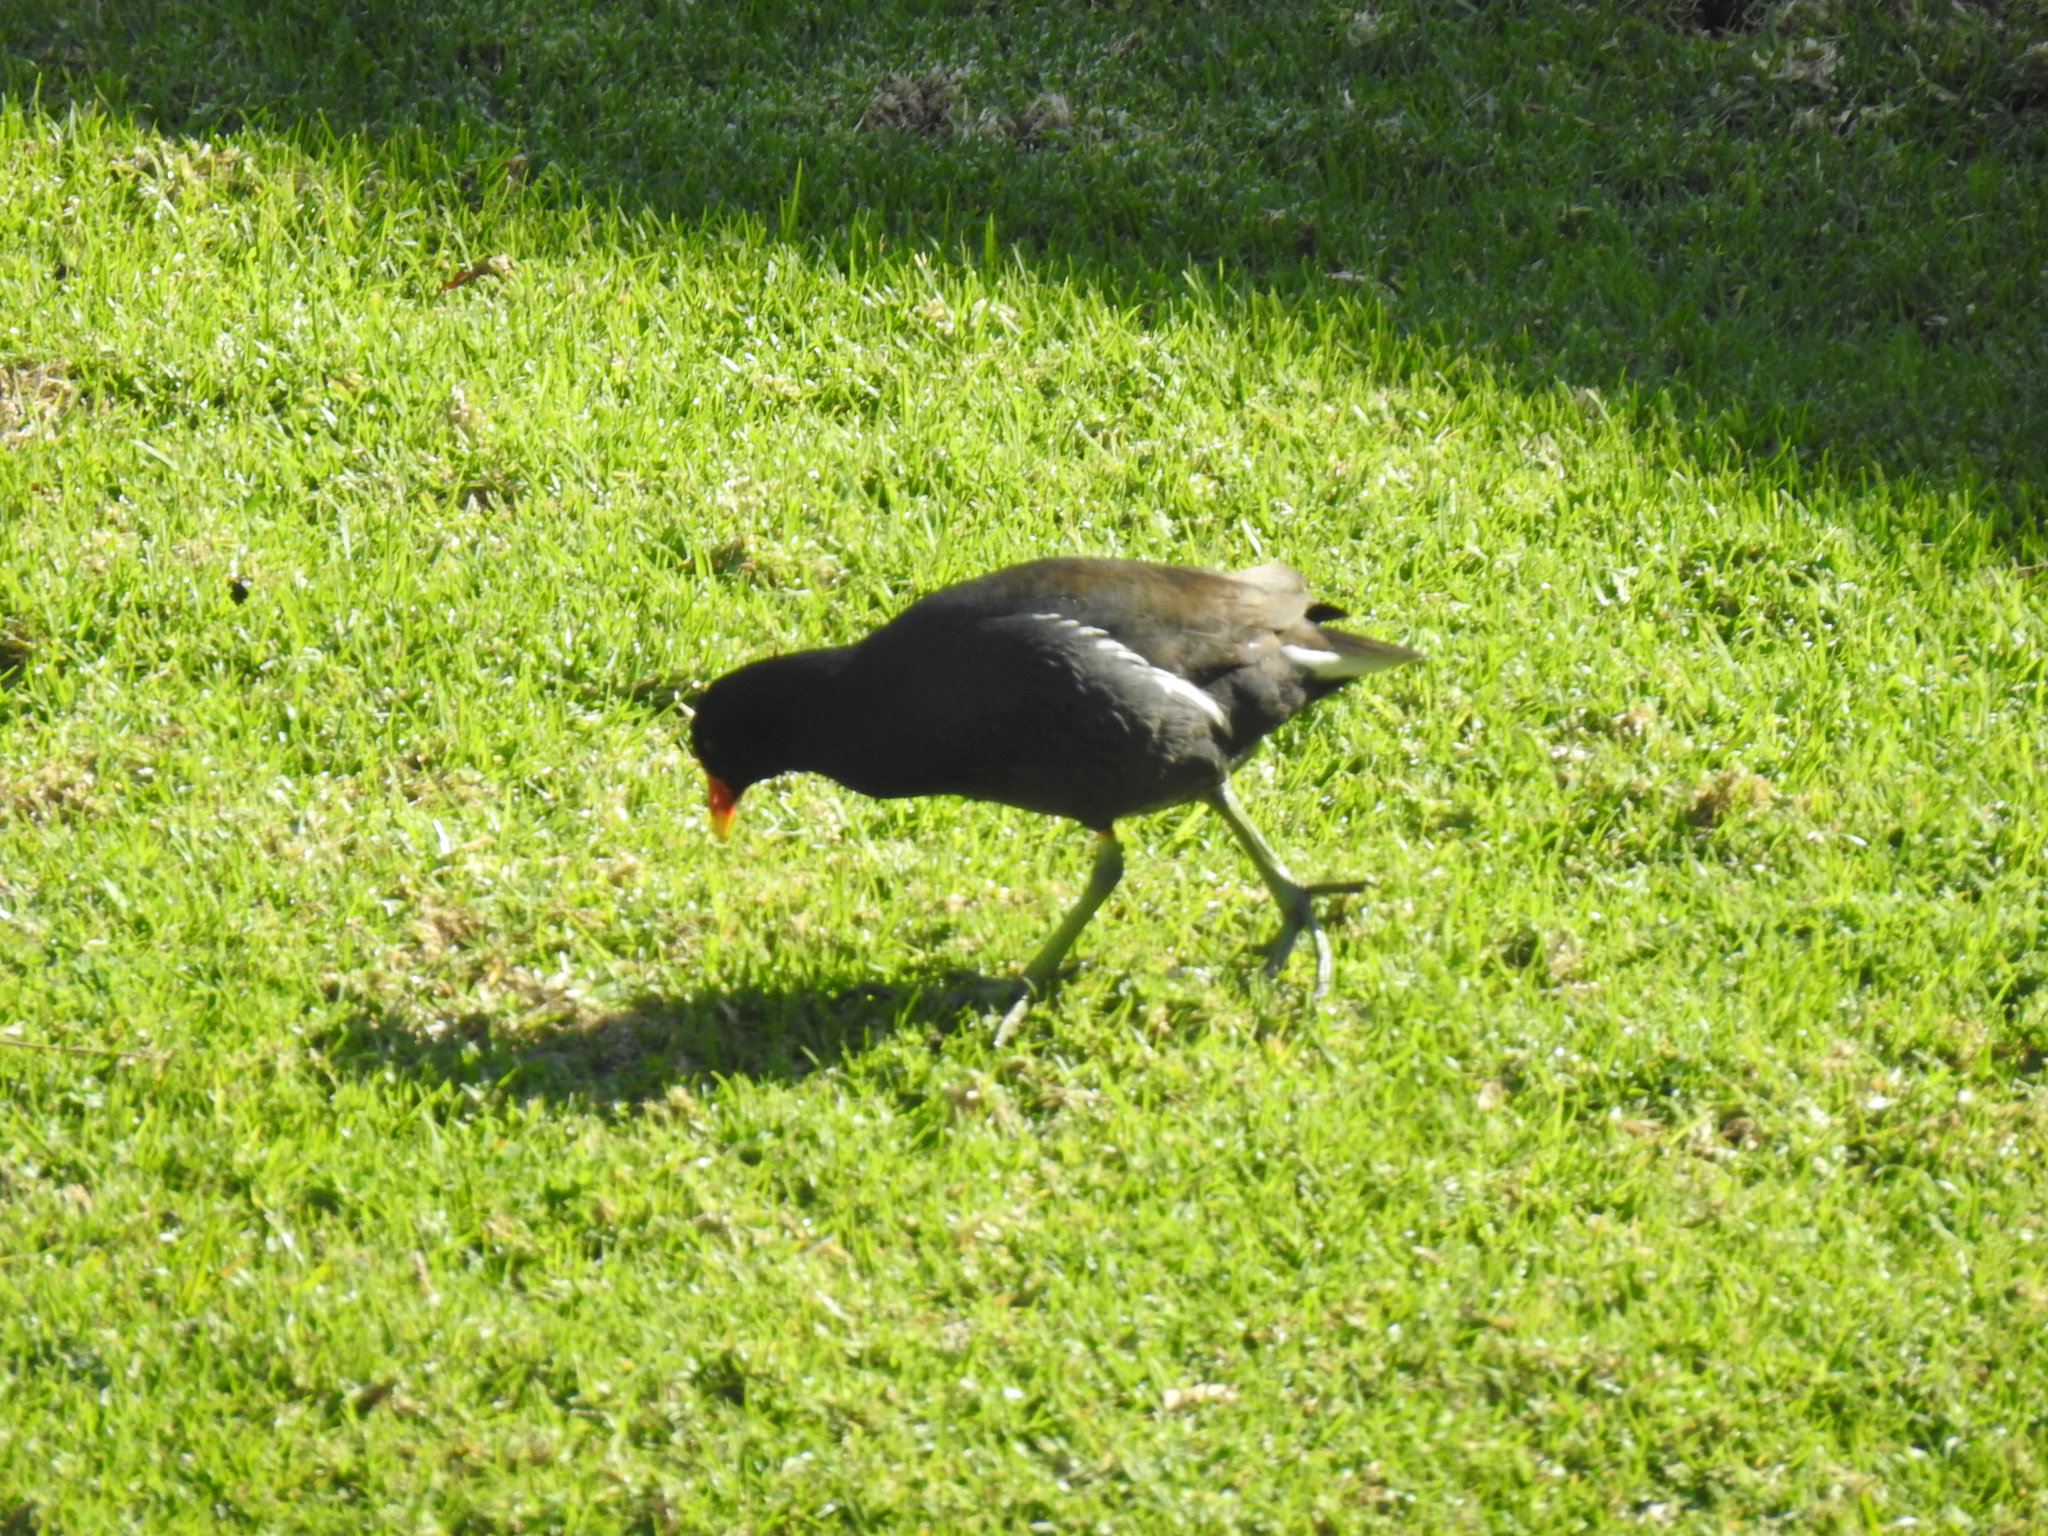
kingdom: Animalia
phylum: Chordata
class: Aves
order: Gruiformes
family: Rallidae
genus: Gallinula
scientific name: Gallinula chloropus
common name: Common moorhen
